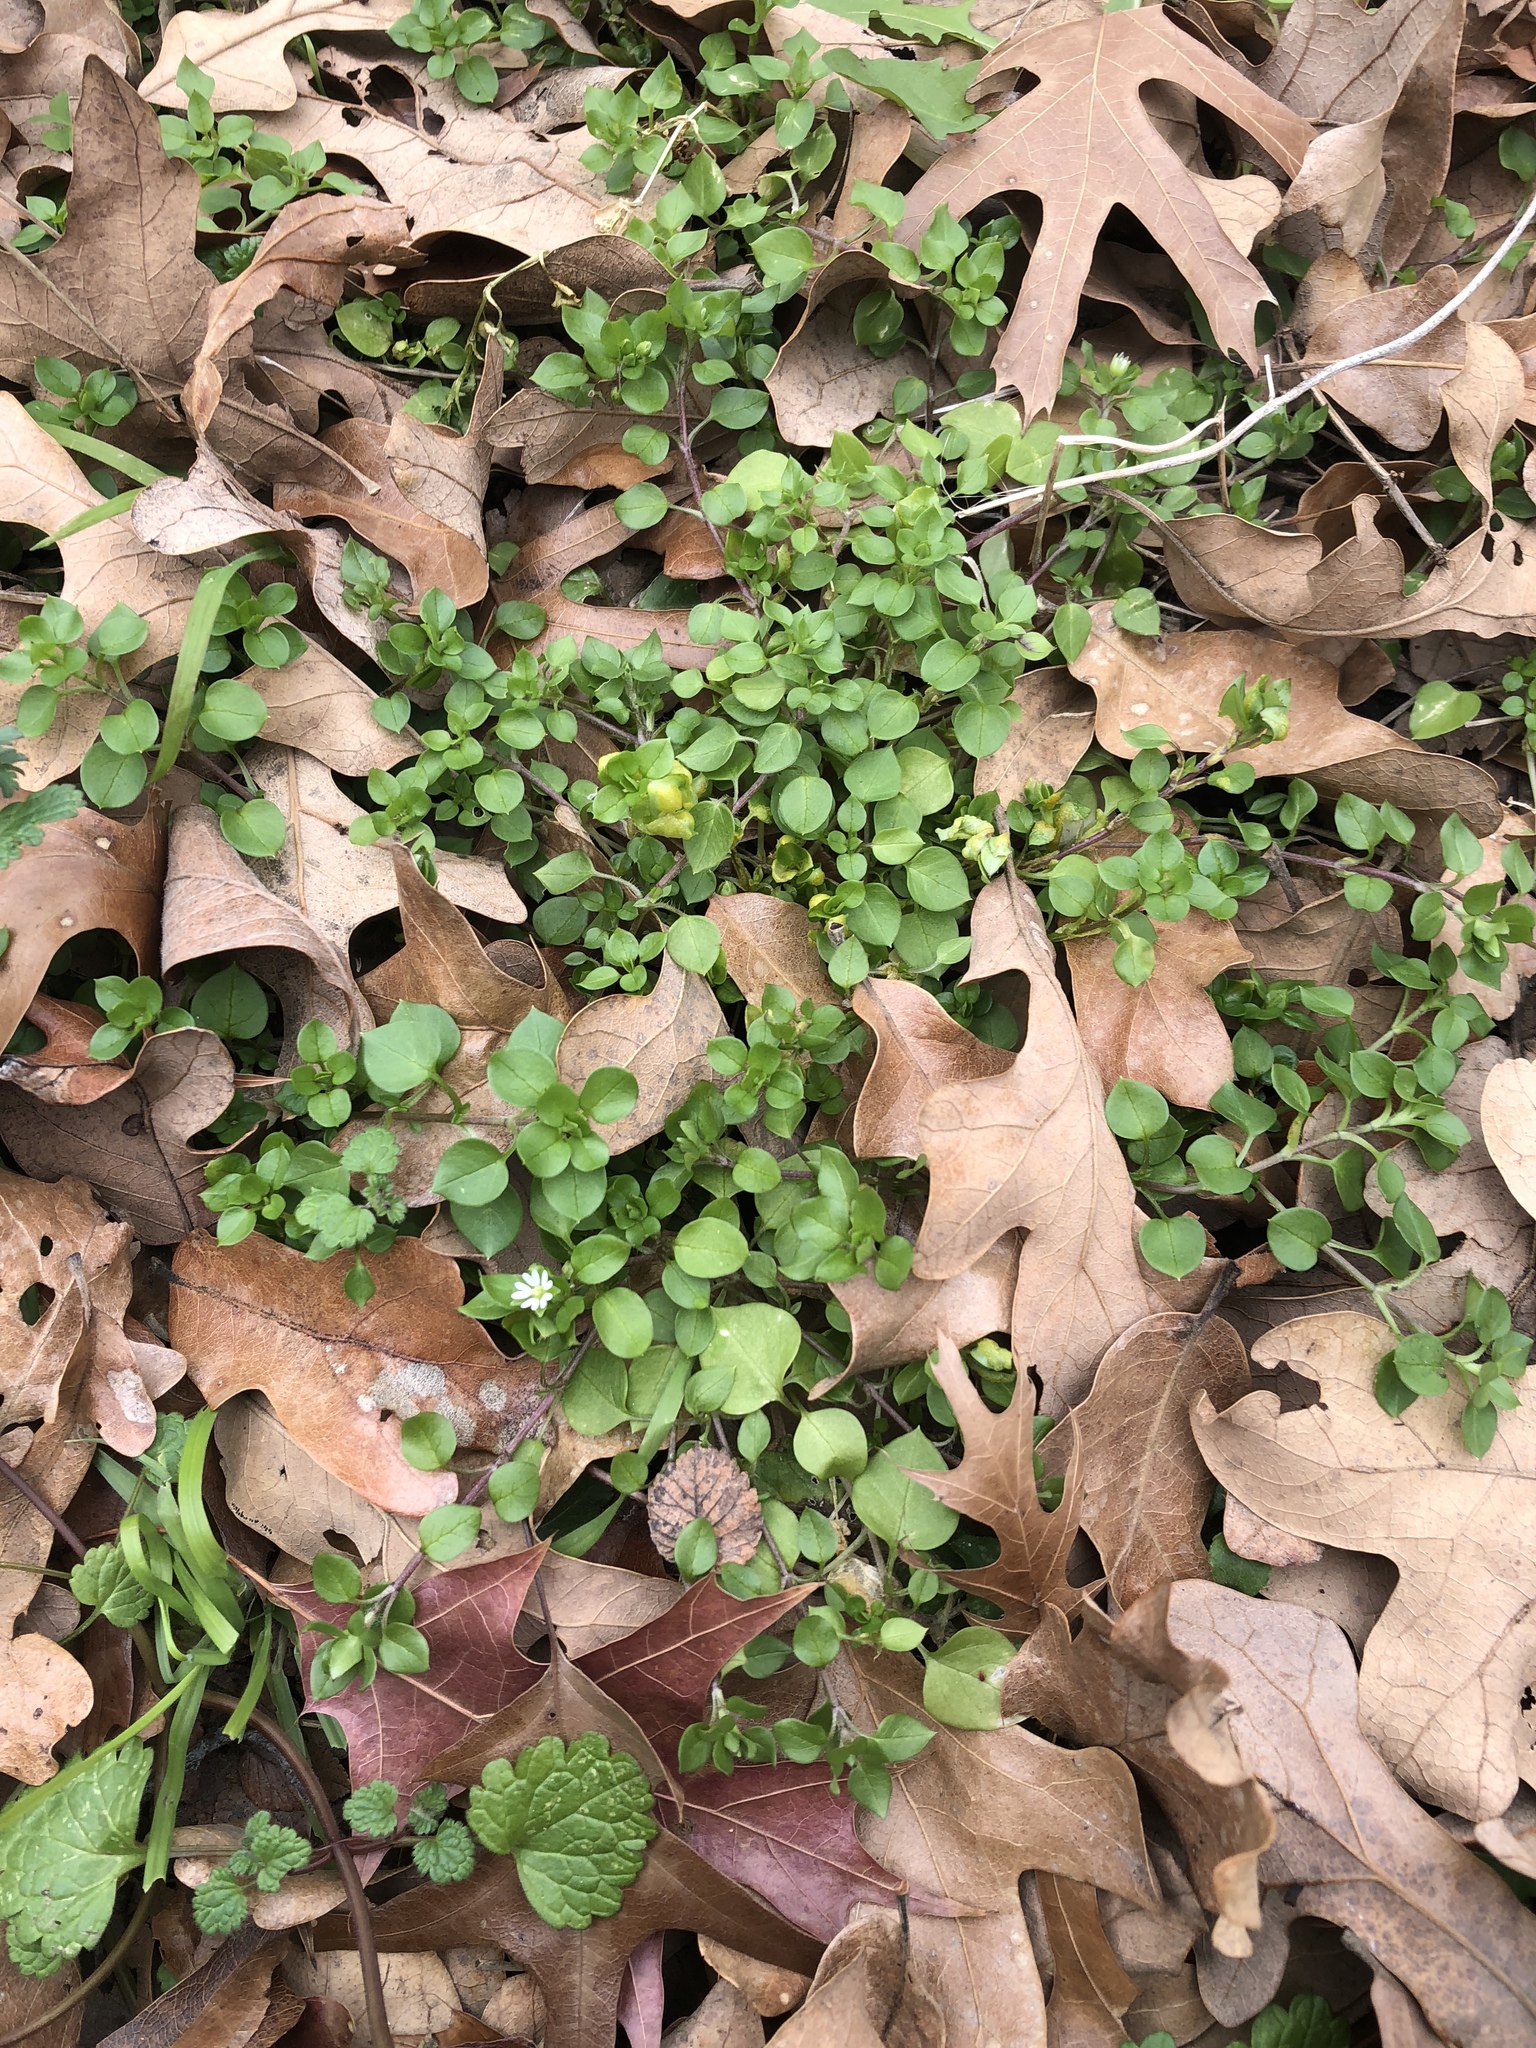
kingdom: Plantae
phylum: Tracheophyta
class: Magnoliopsida
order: Caryophyllales
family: Caryophyllaceae
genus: Stellaria
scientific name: Stellaria media
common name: Common chickweed
